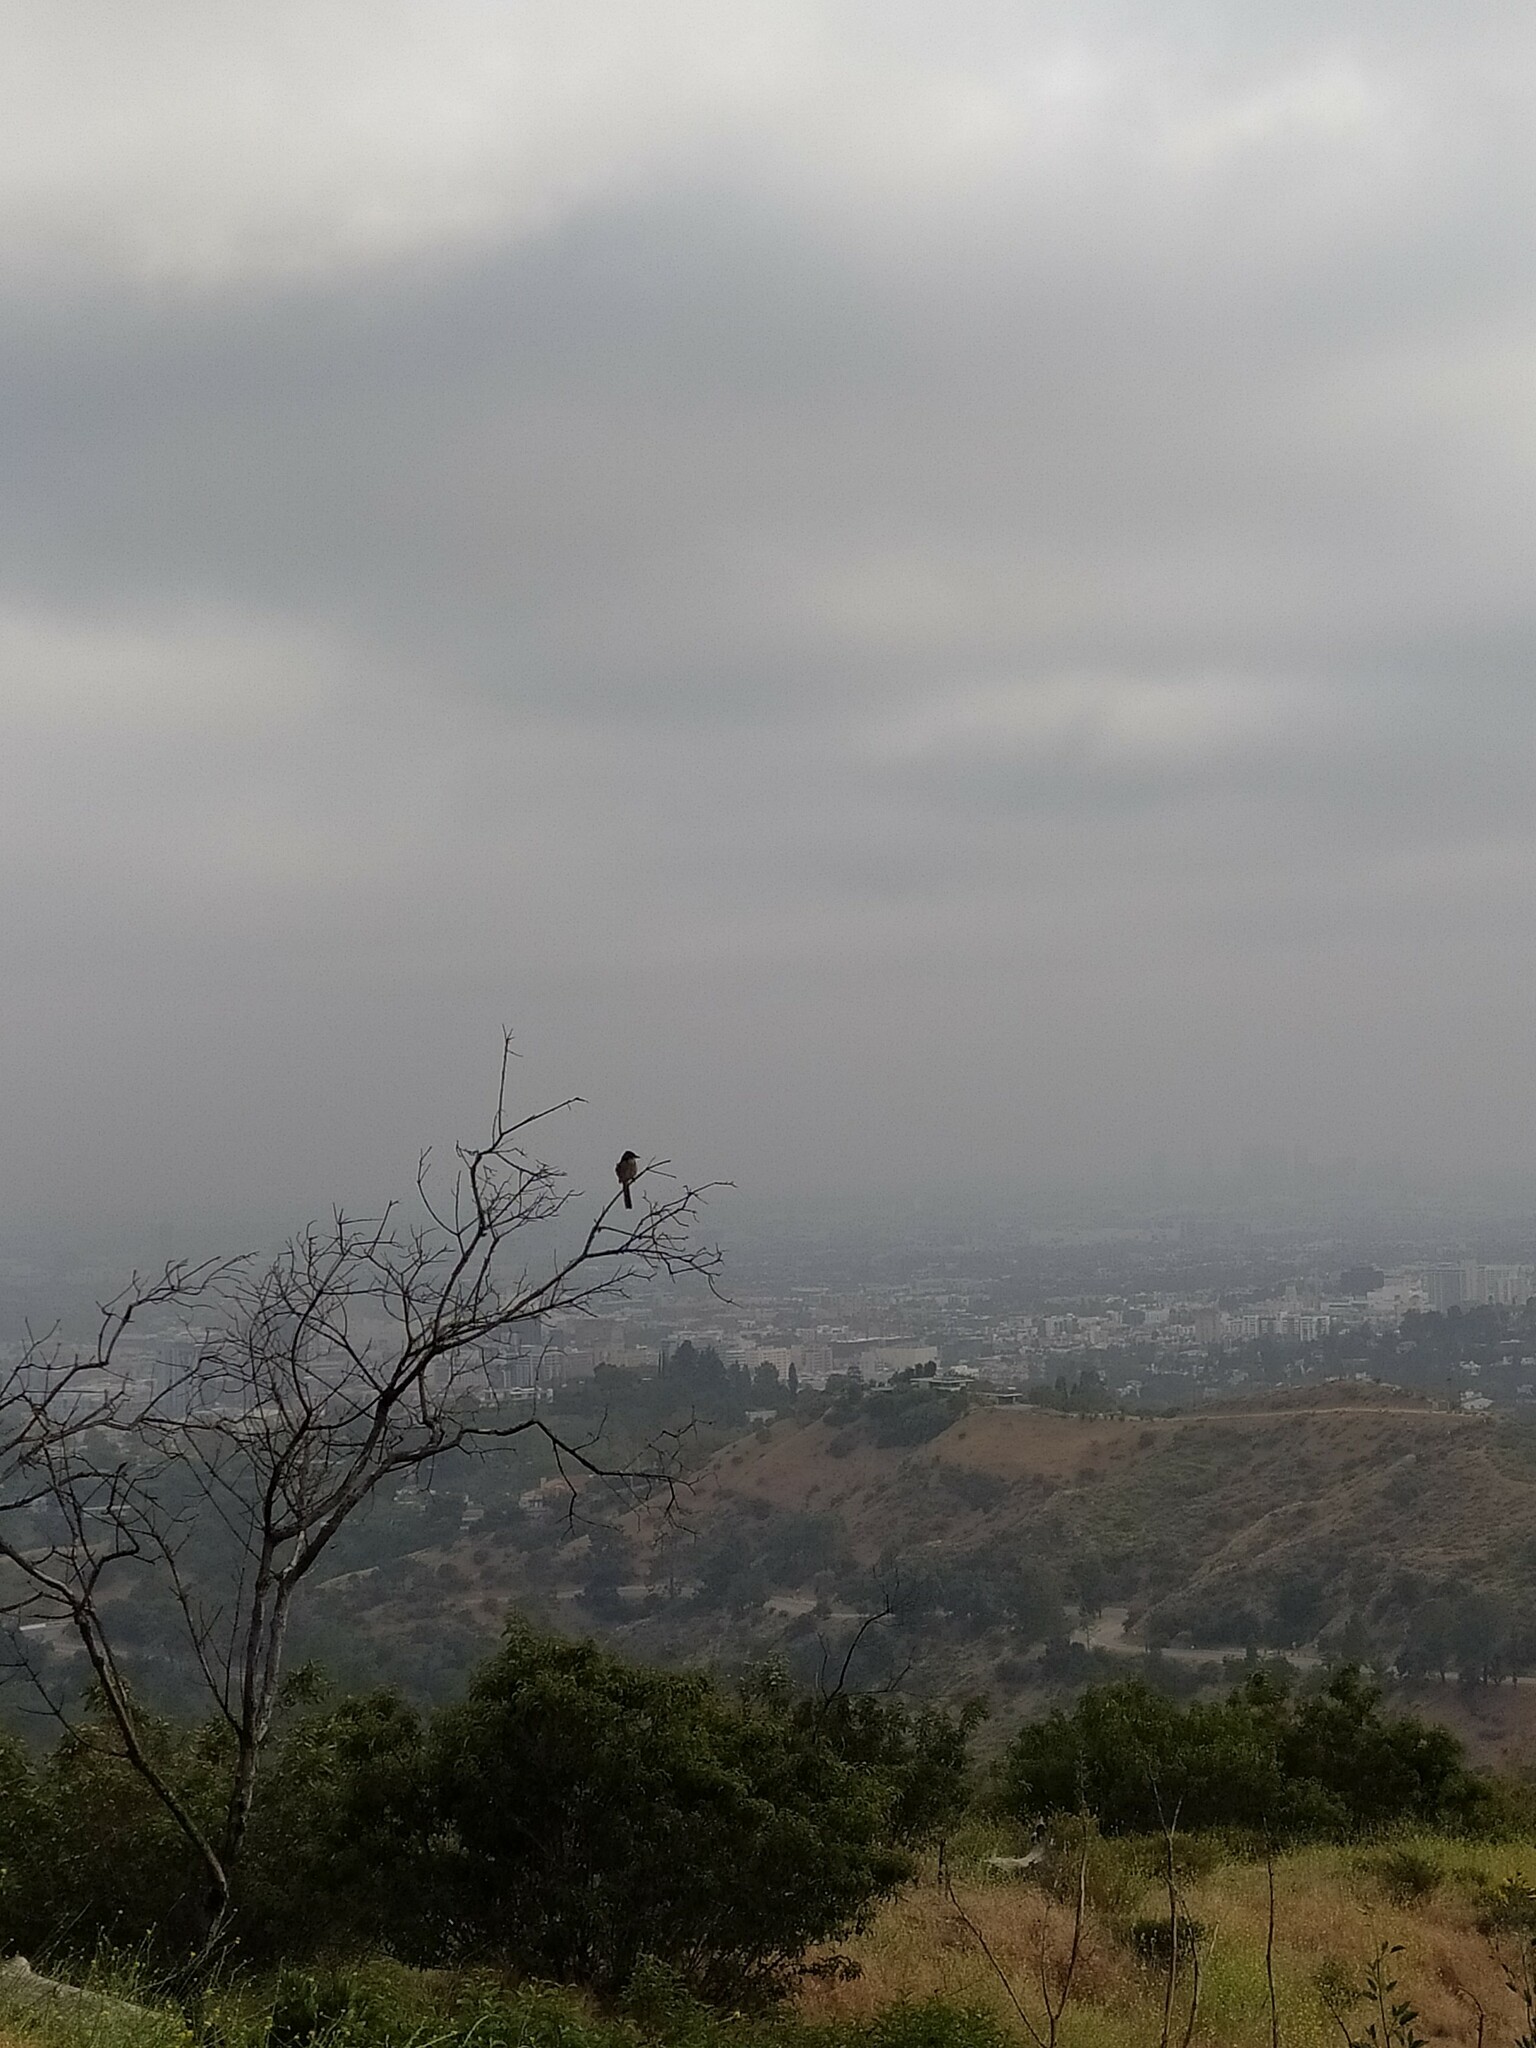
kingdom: Animalia
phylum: Chordata
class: Aves
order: Passeriformes
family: Corvidae
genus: Aphelocoma
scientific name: Aphelocoma californica
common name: California scrub-jay
